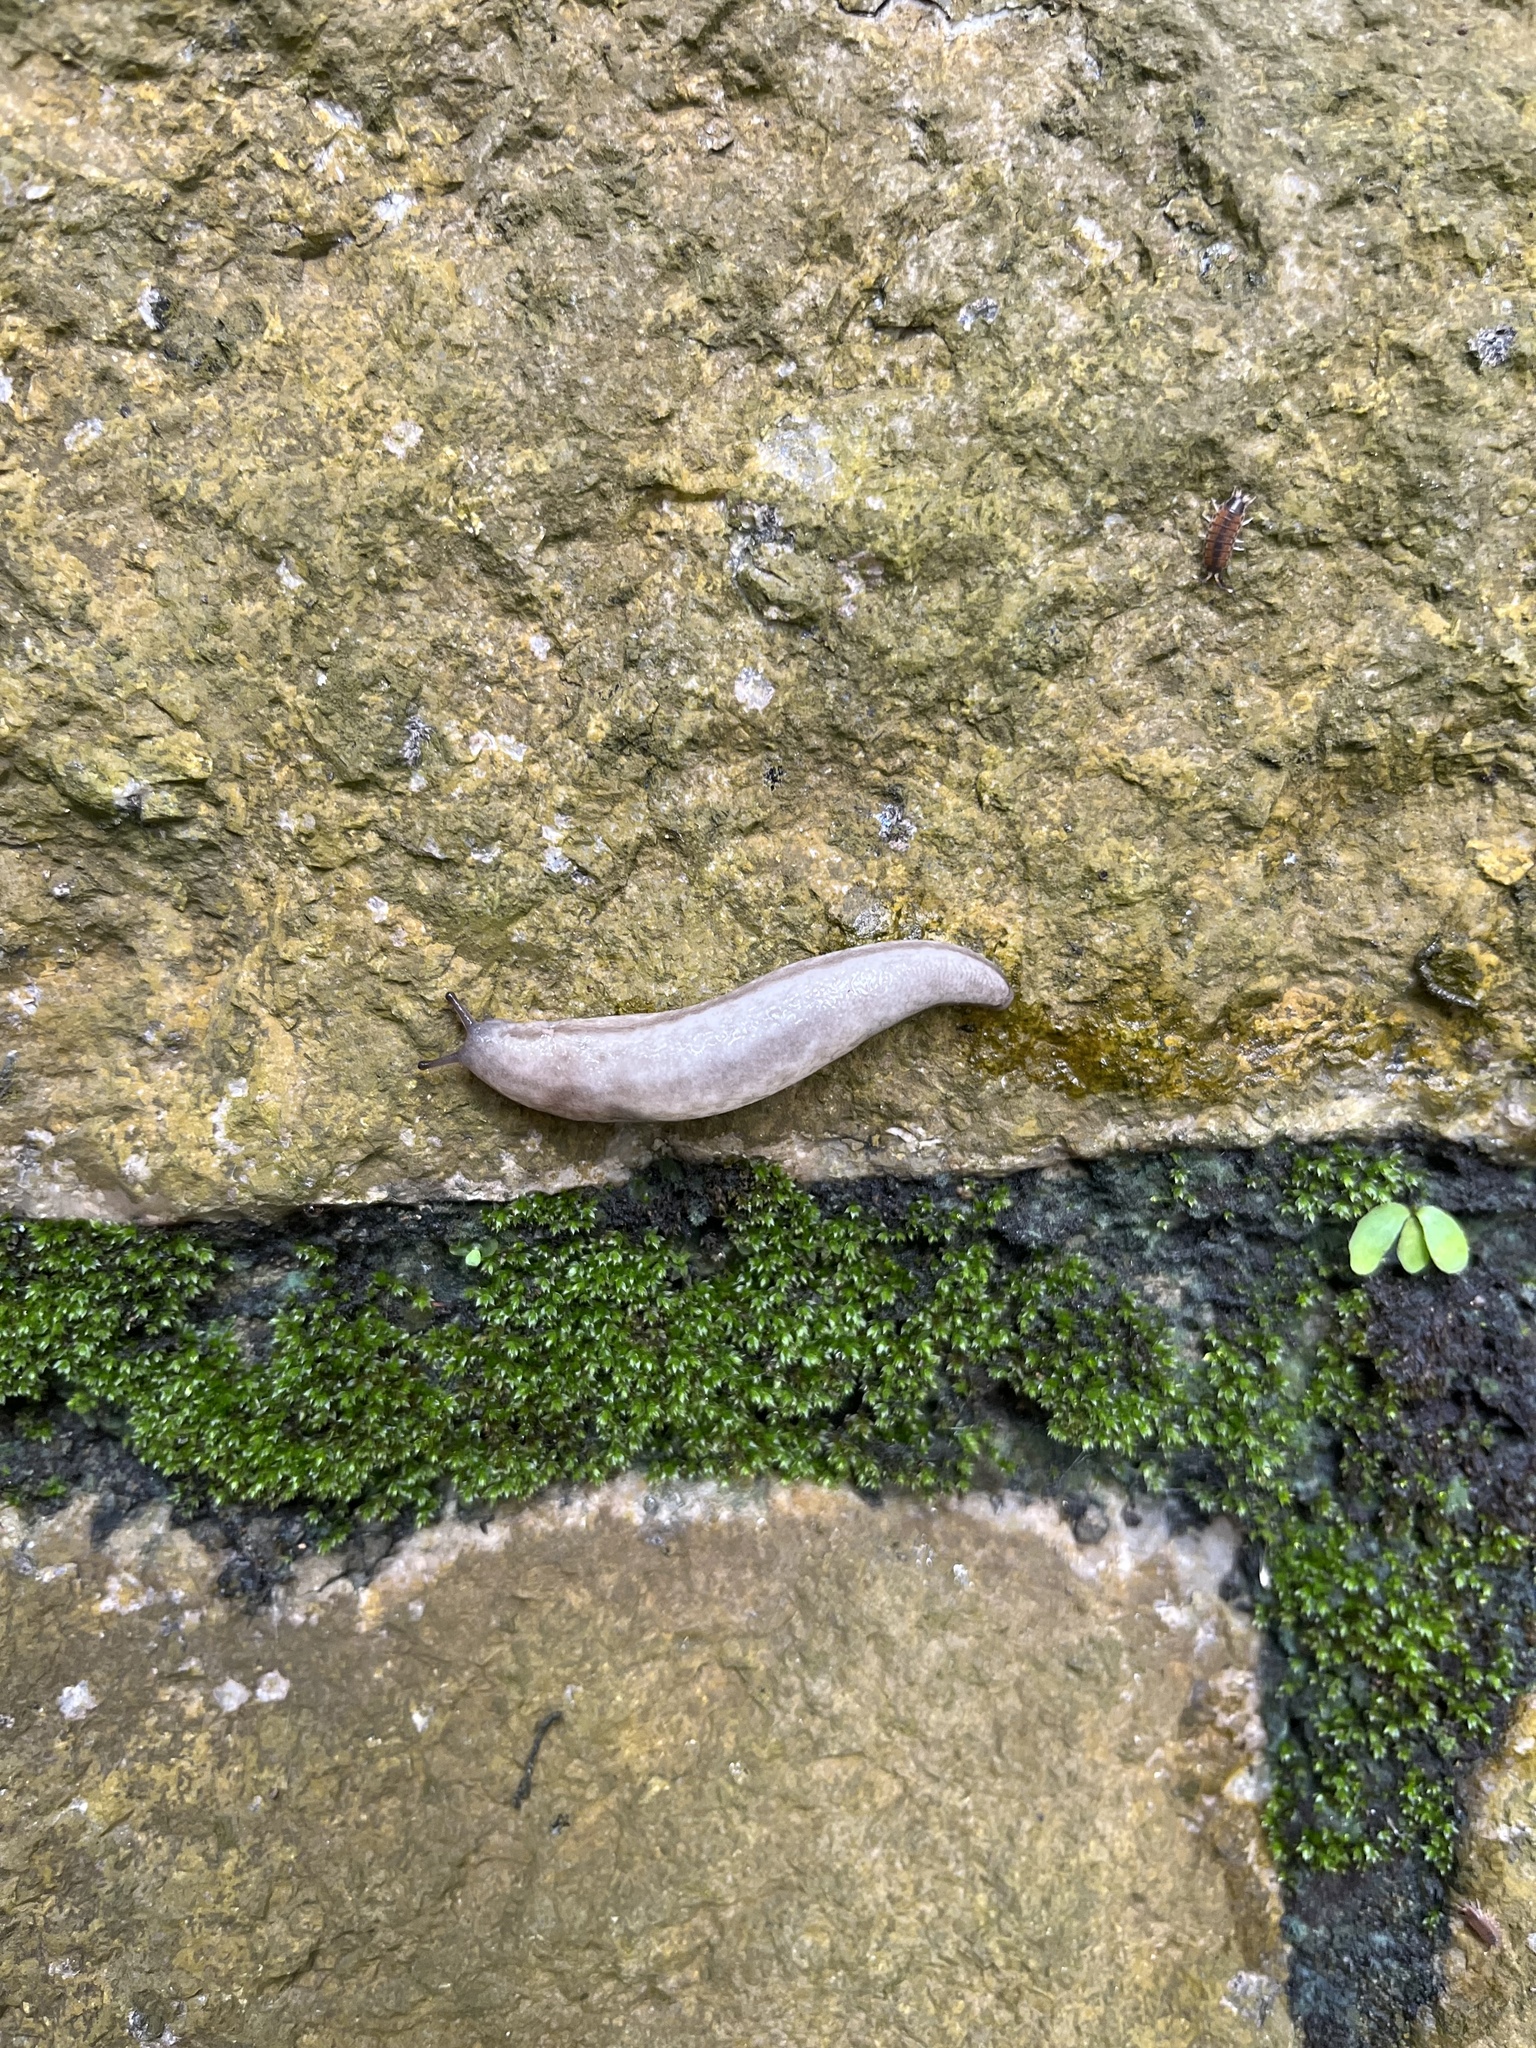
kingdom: Animalia
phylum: Mollusca
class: Gastropoda
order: Stylommatophora
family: Philomycidae
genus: Meghimatium
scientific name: Meghimatium bilineatum
